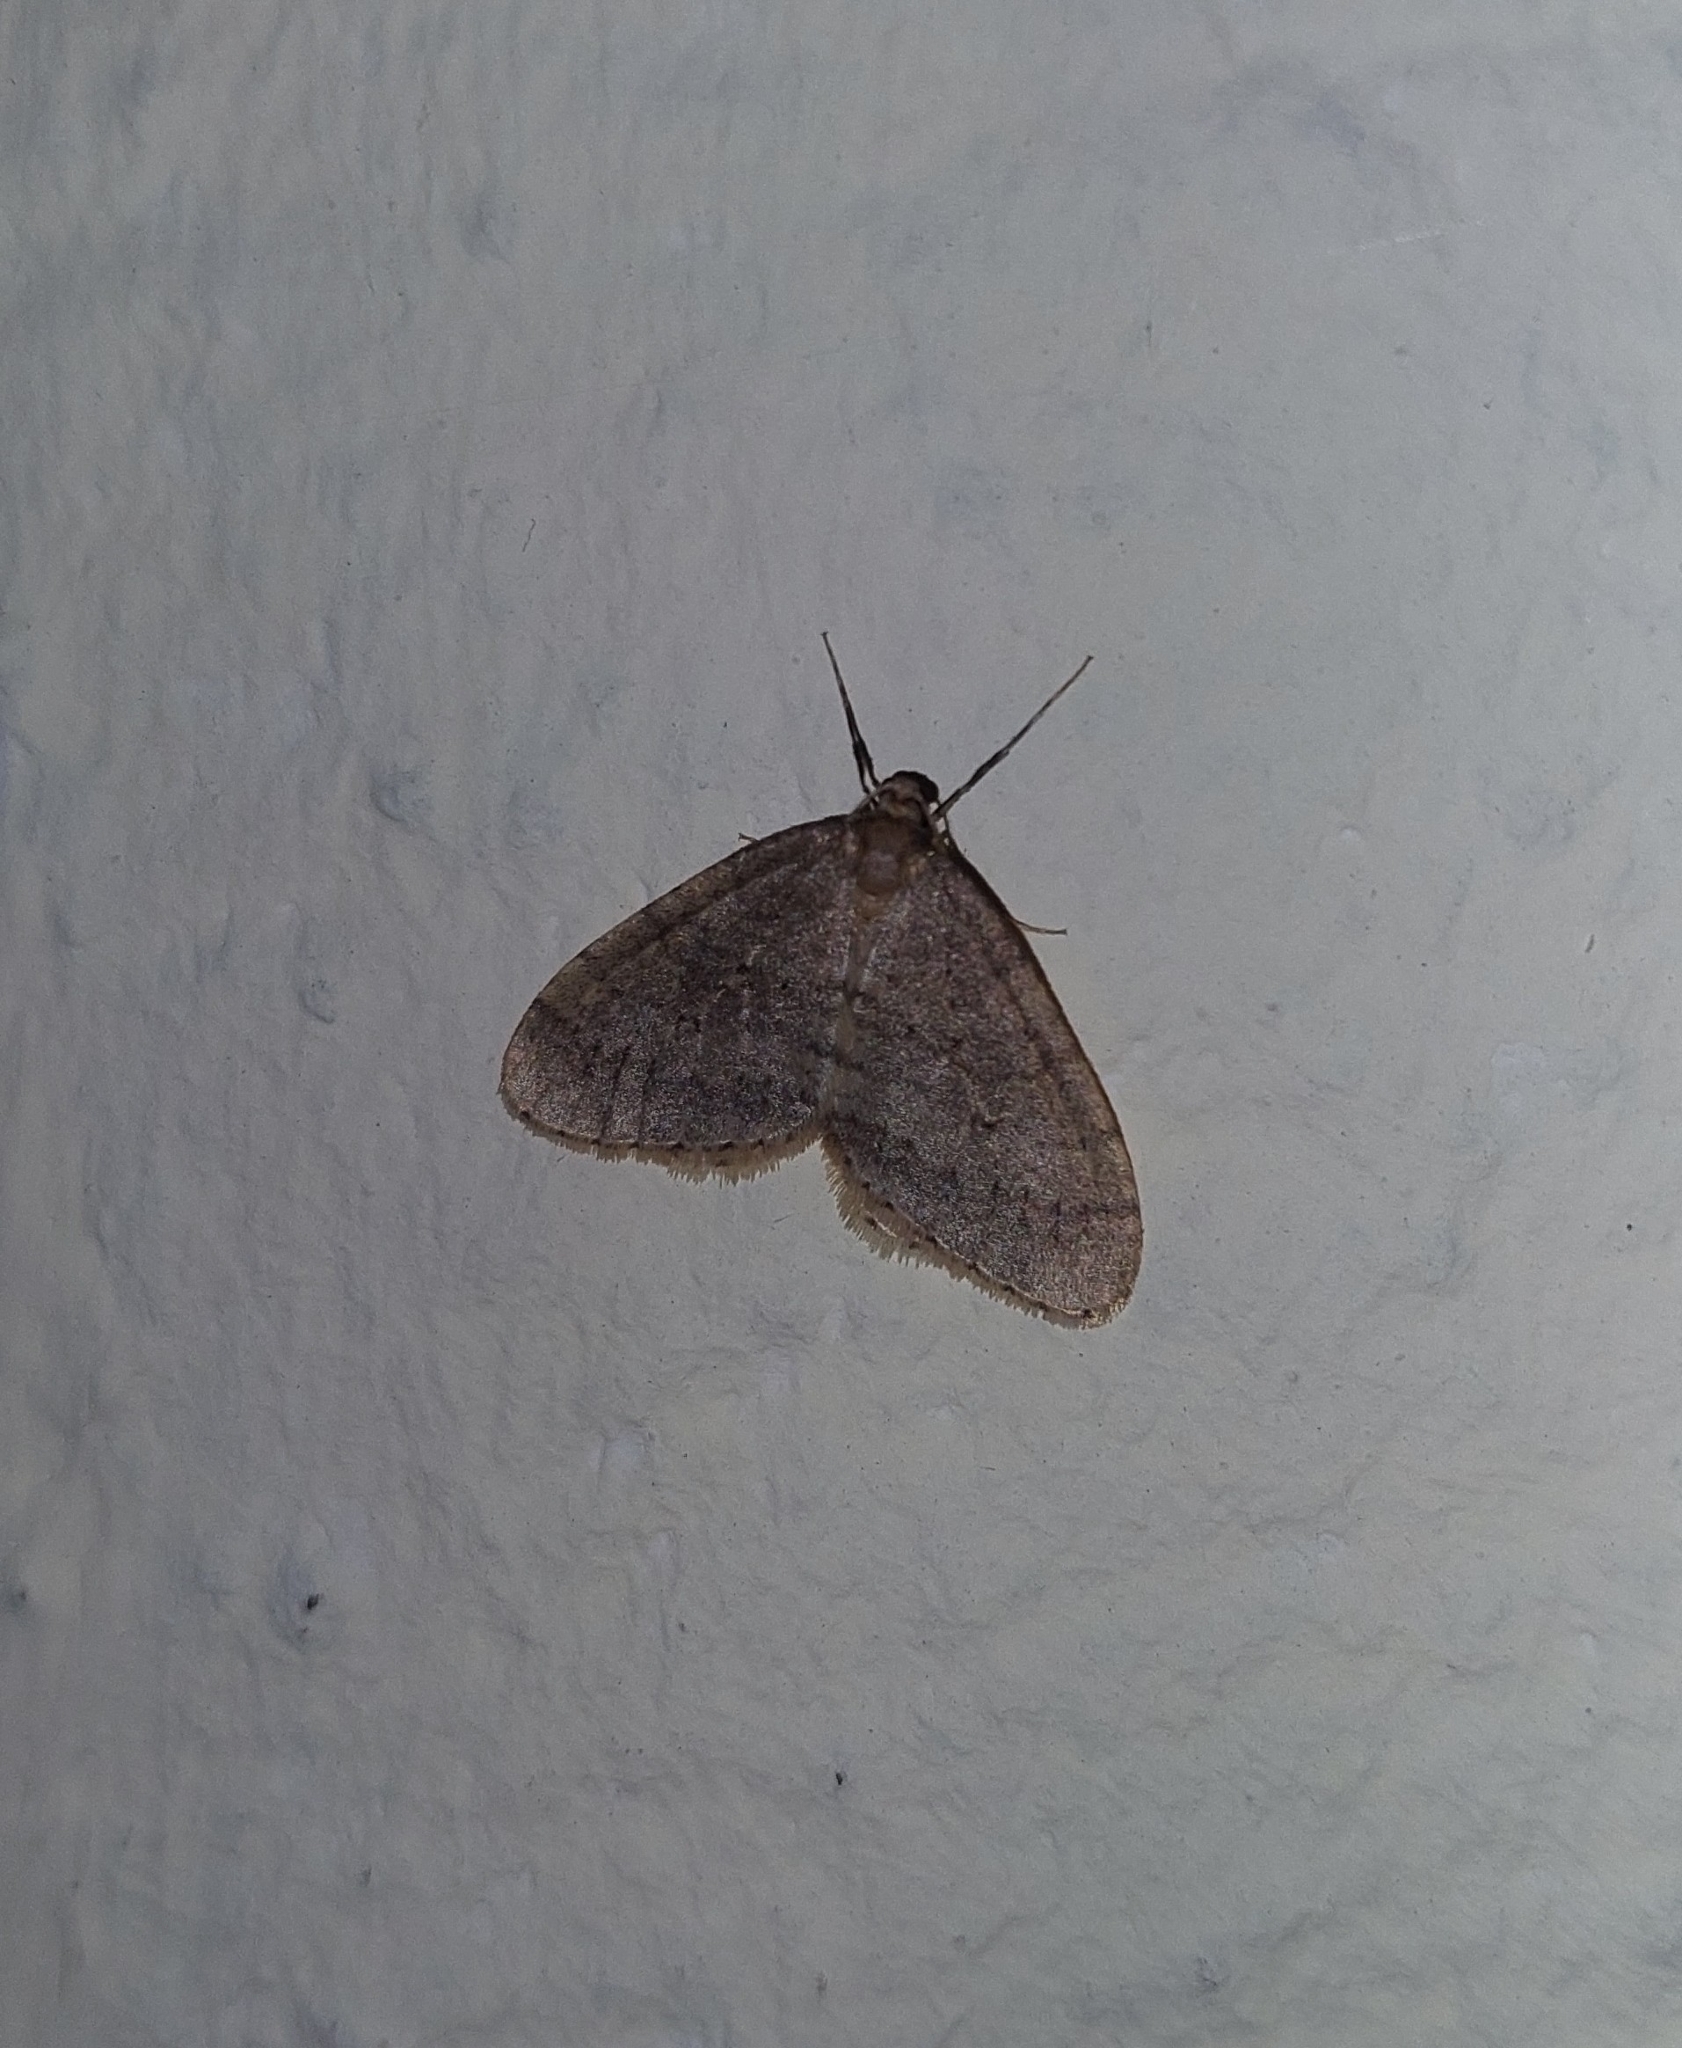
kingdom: Animalia
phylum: Arthropoda
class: Insecta
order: Lepidoptera
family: Geometridae
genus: Operophtera
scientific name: Operophtera brumata
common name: Winter moth
